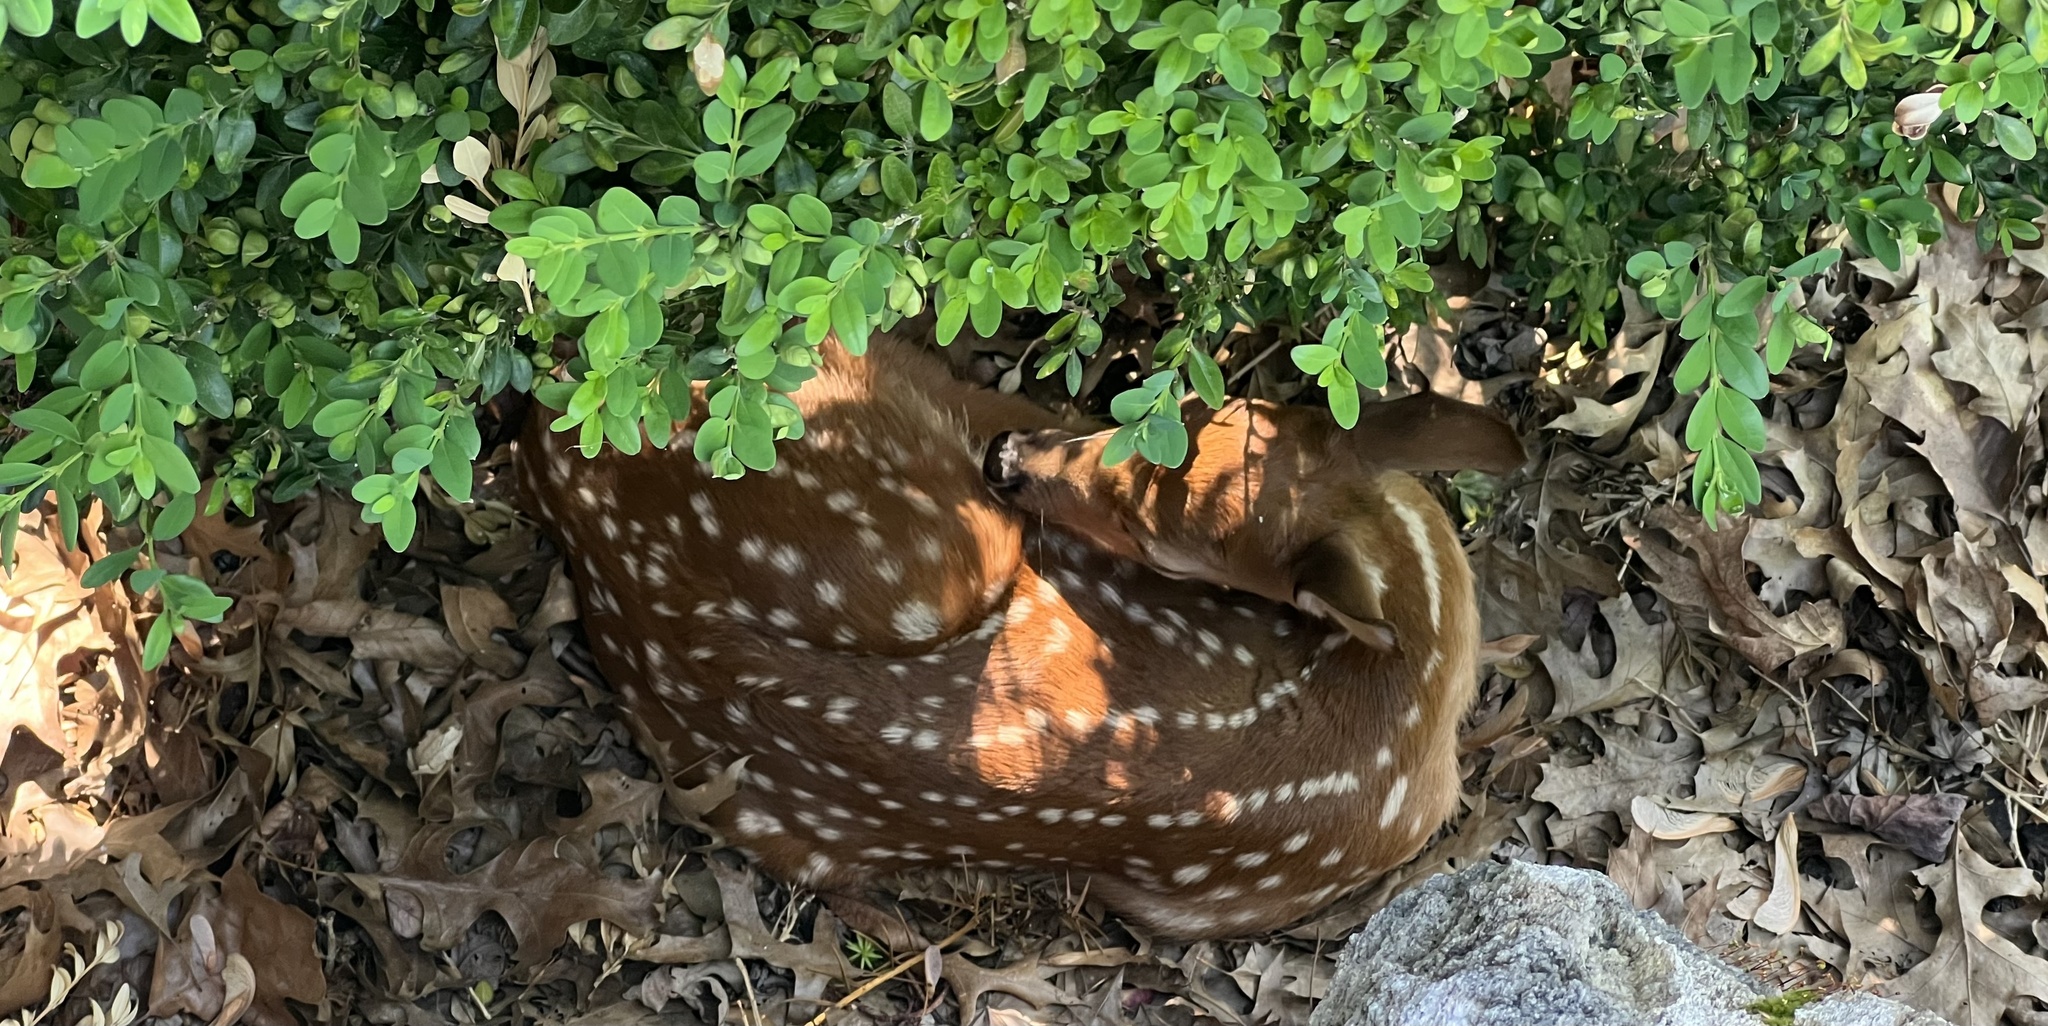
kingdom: Animalia
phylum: Chordata
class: Mammalia
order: Artiodactyla
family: Cervidae
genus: Odocoileus
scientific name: Odocoileus virginianus
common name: White-tailed deer
